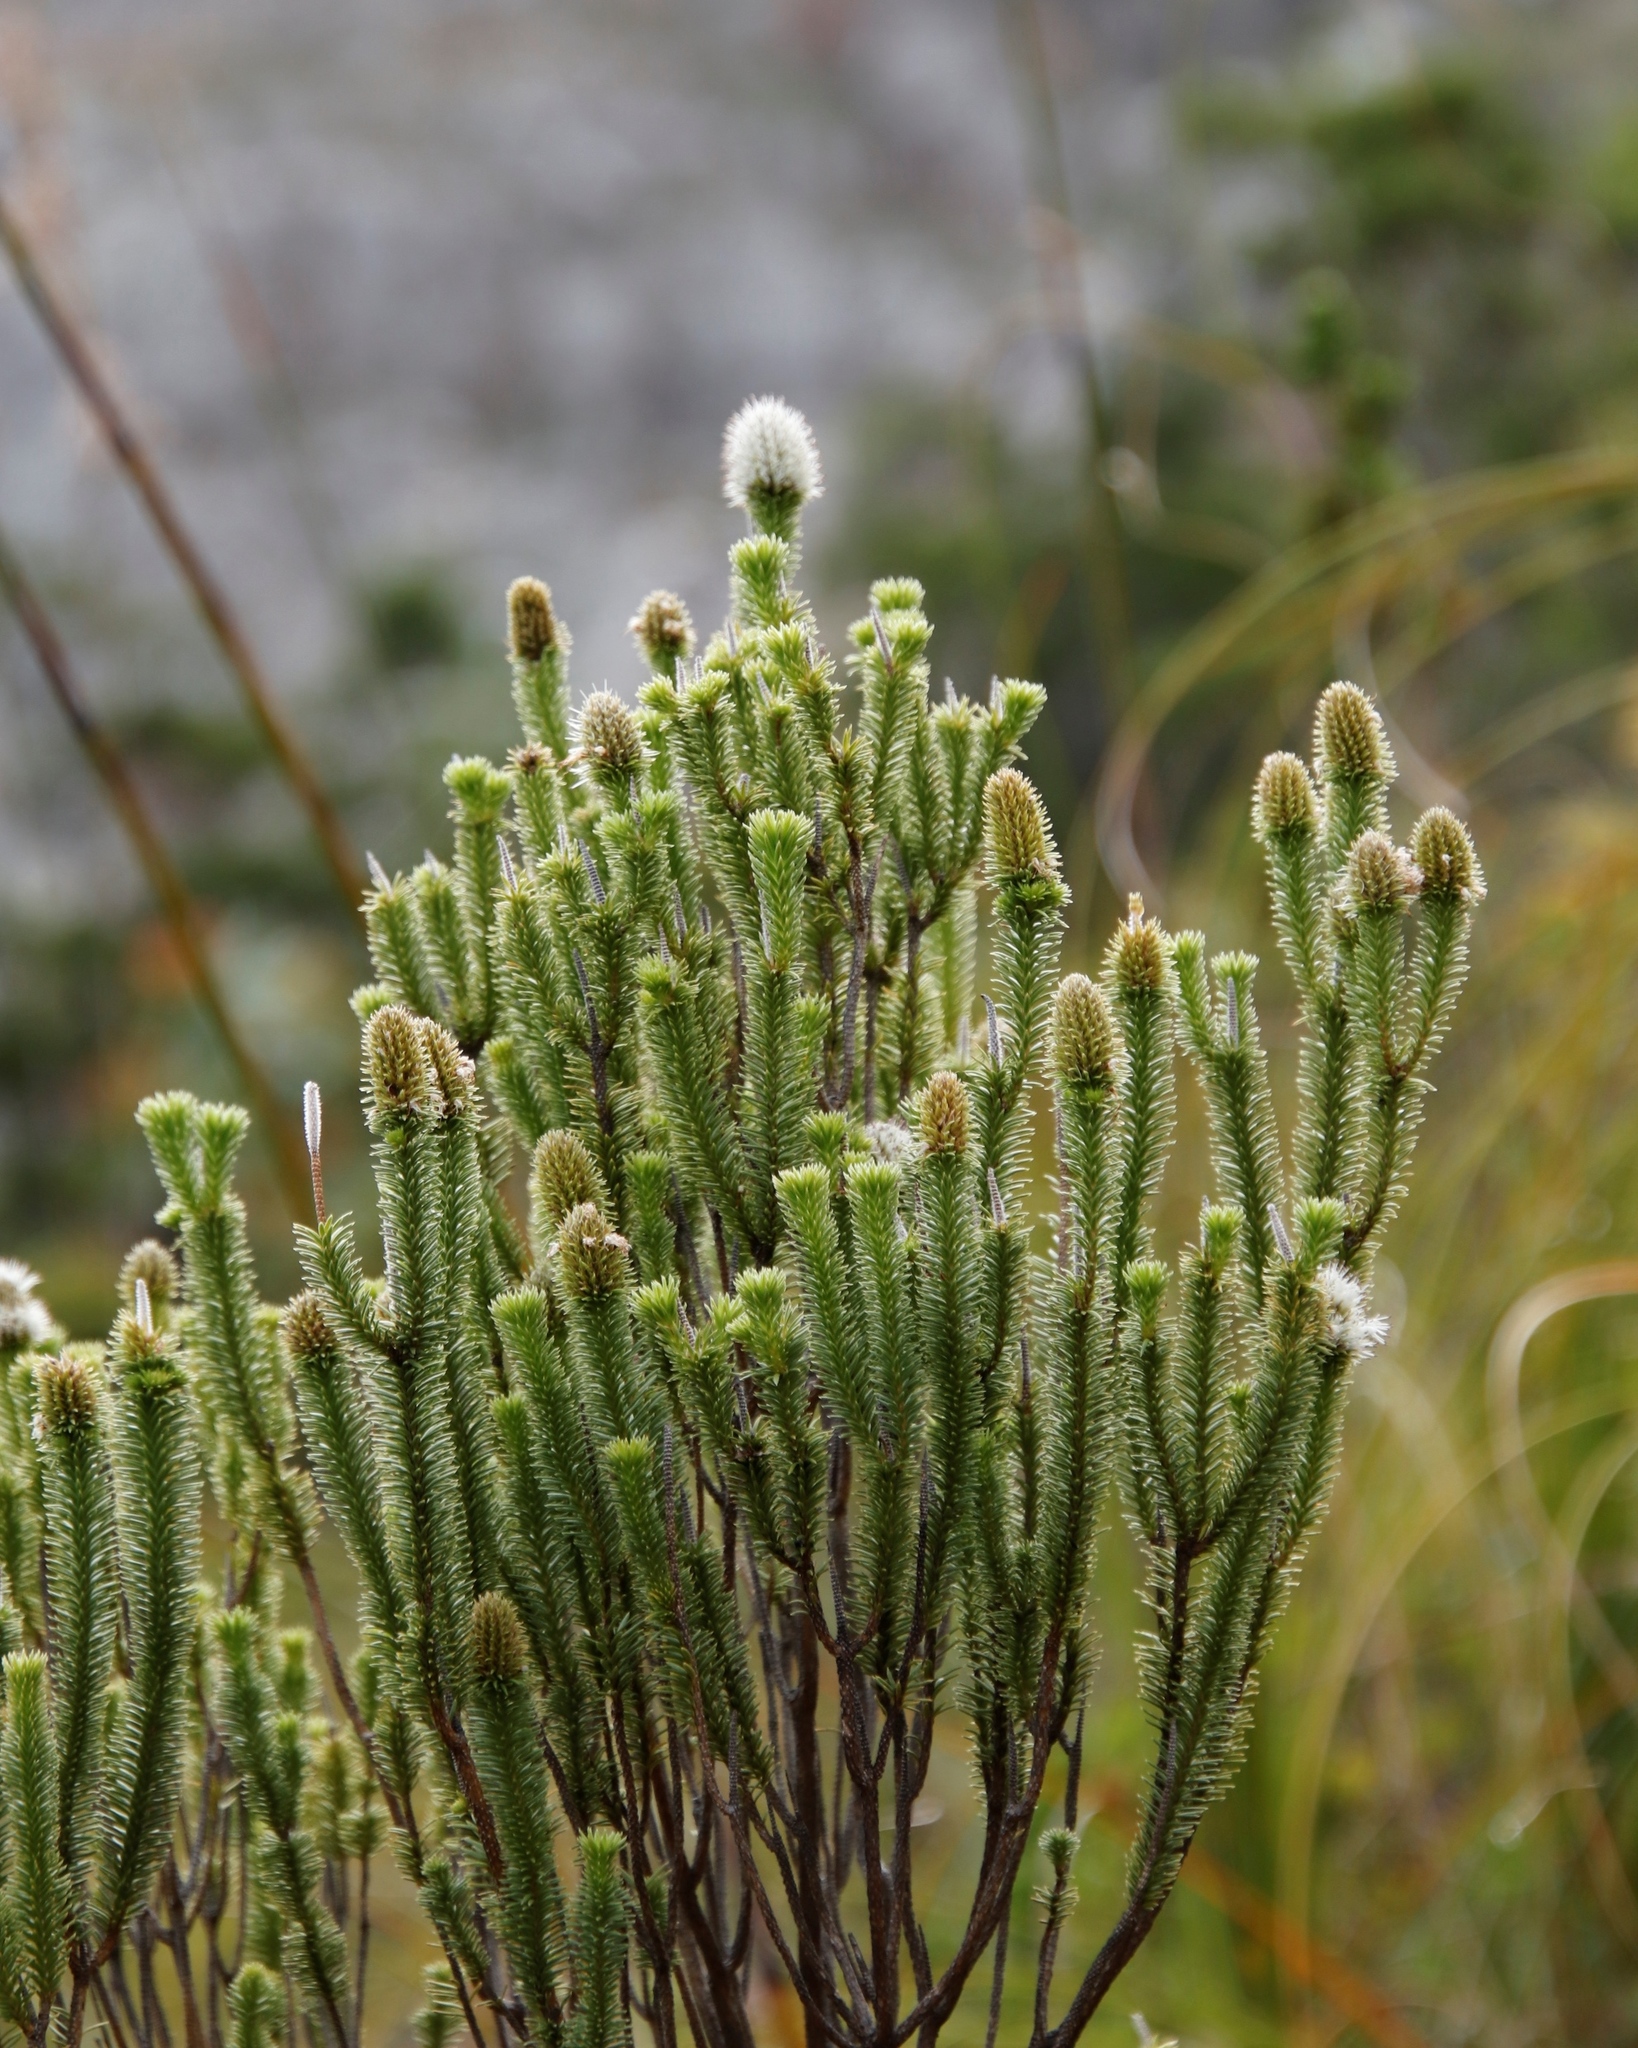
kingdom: Plantae
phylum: Tracheophyta
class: Magnoliopsida
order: Lamiales
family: Stilbaceae
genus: Stilbe
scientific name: Stilbe vestita
